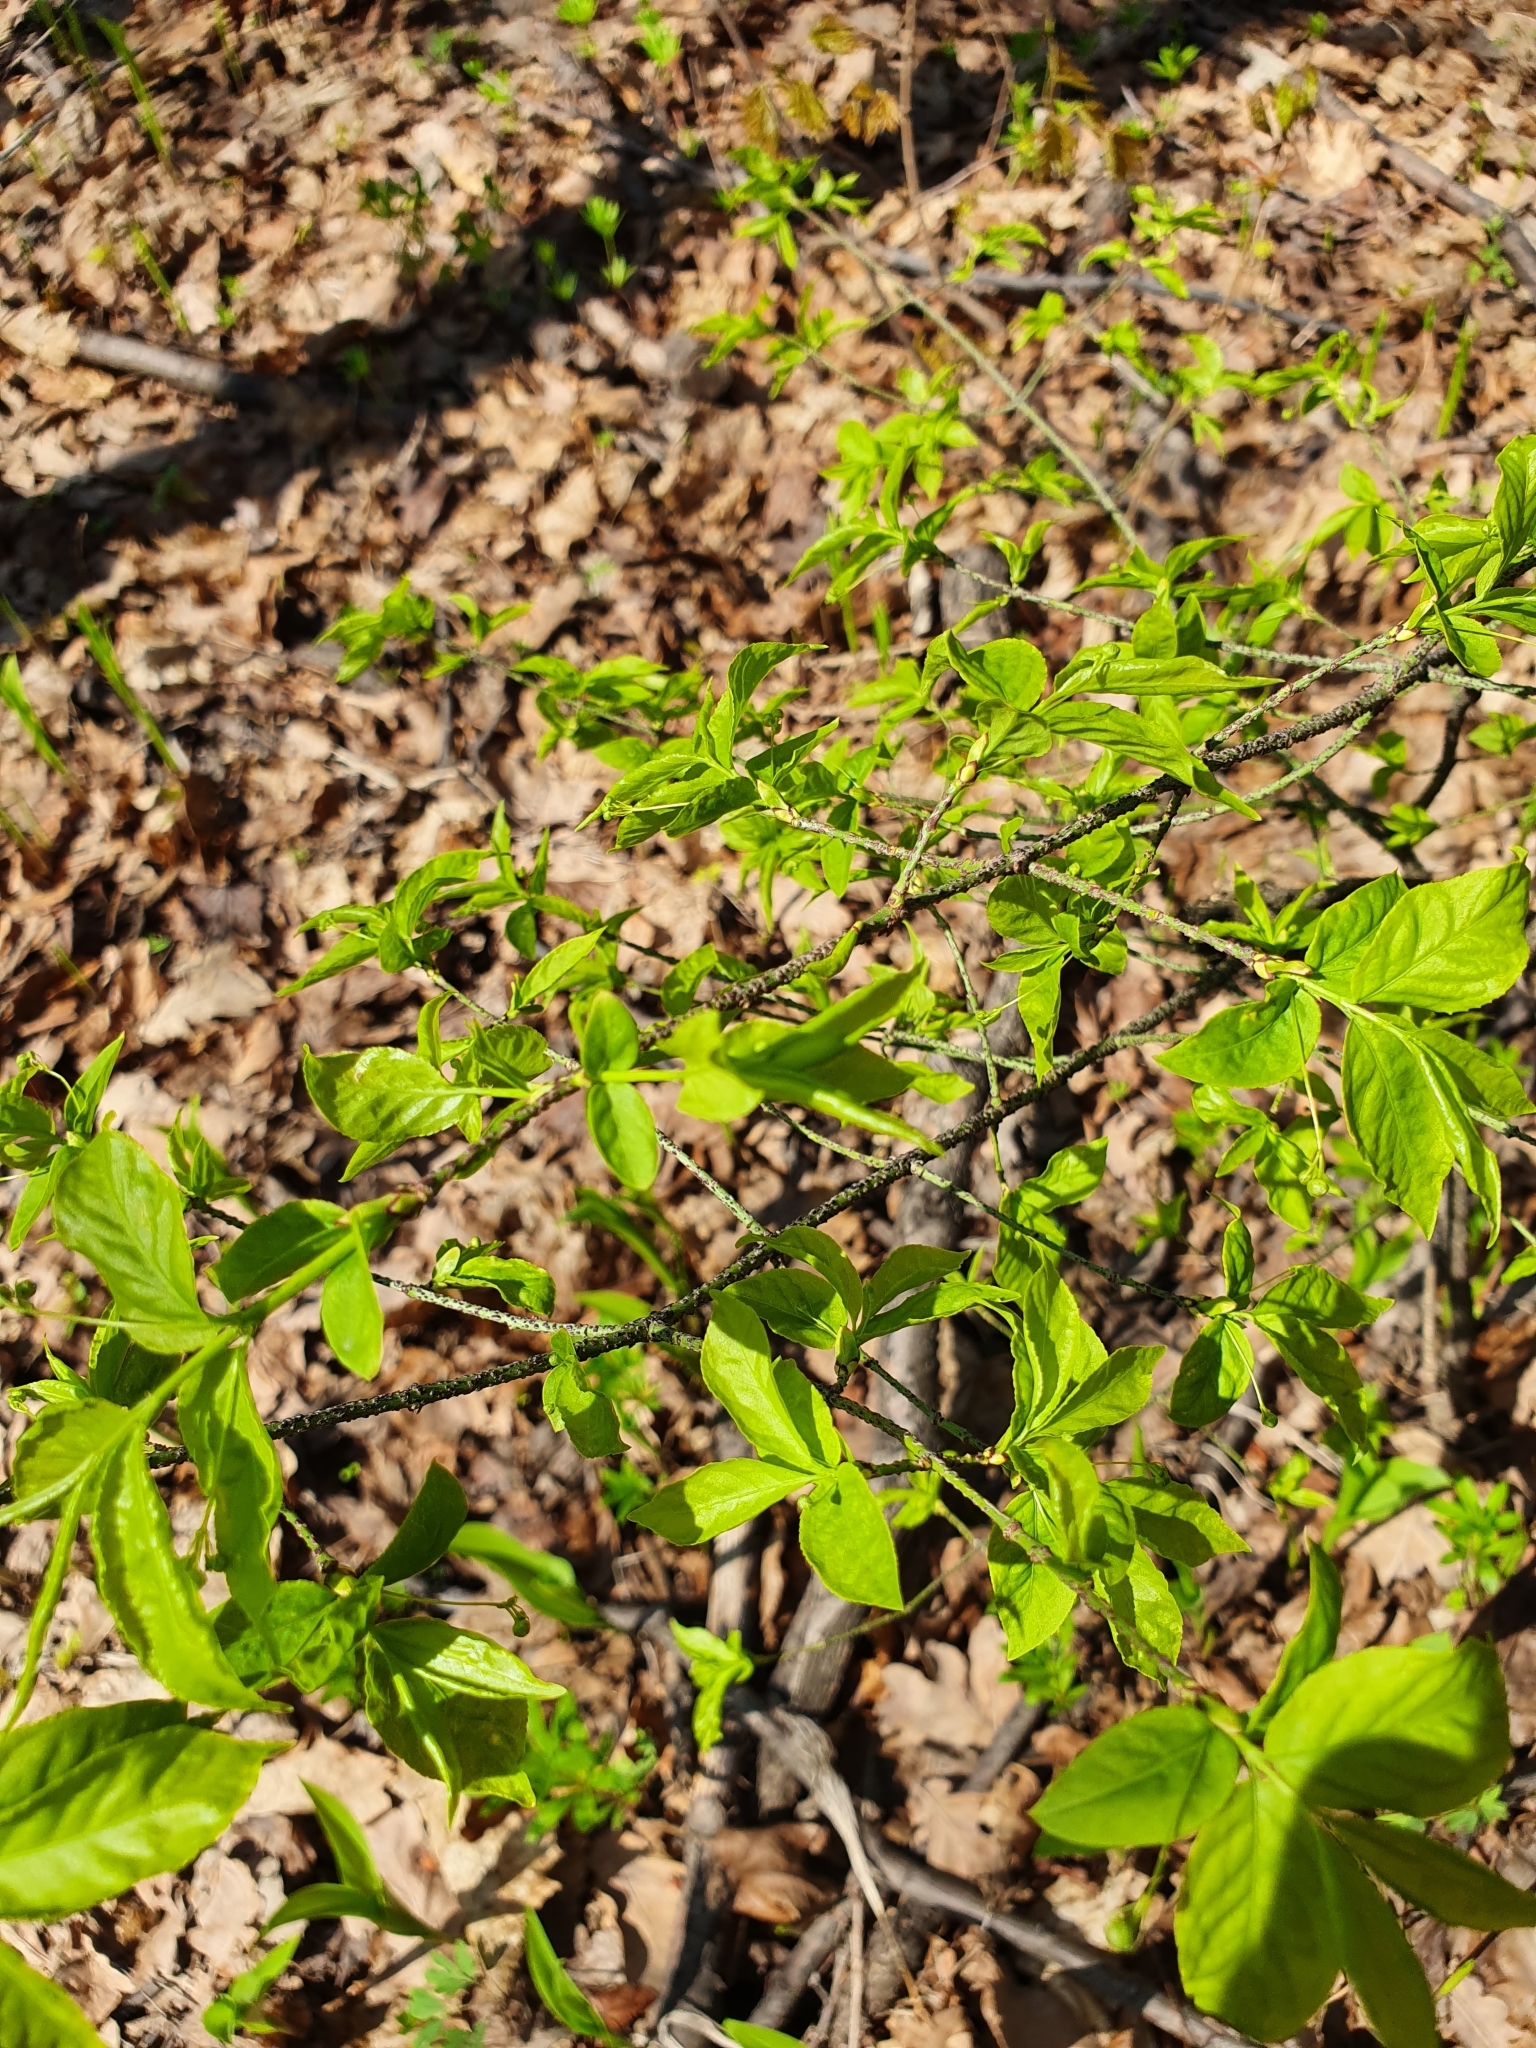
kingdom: Plantae
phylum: Tracheophyta
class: Magnoliopsida
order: Celastrales
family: Celastraceae
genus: Euonymus
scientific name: Euonymus verrucosus
